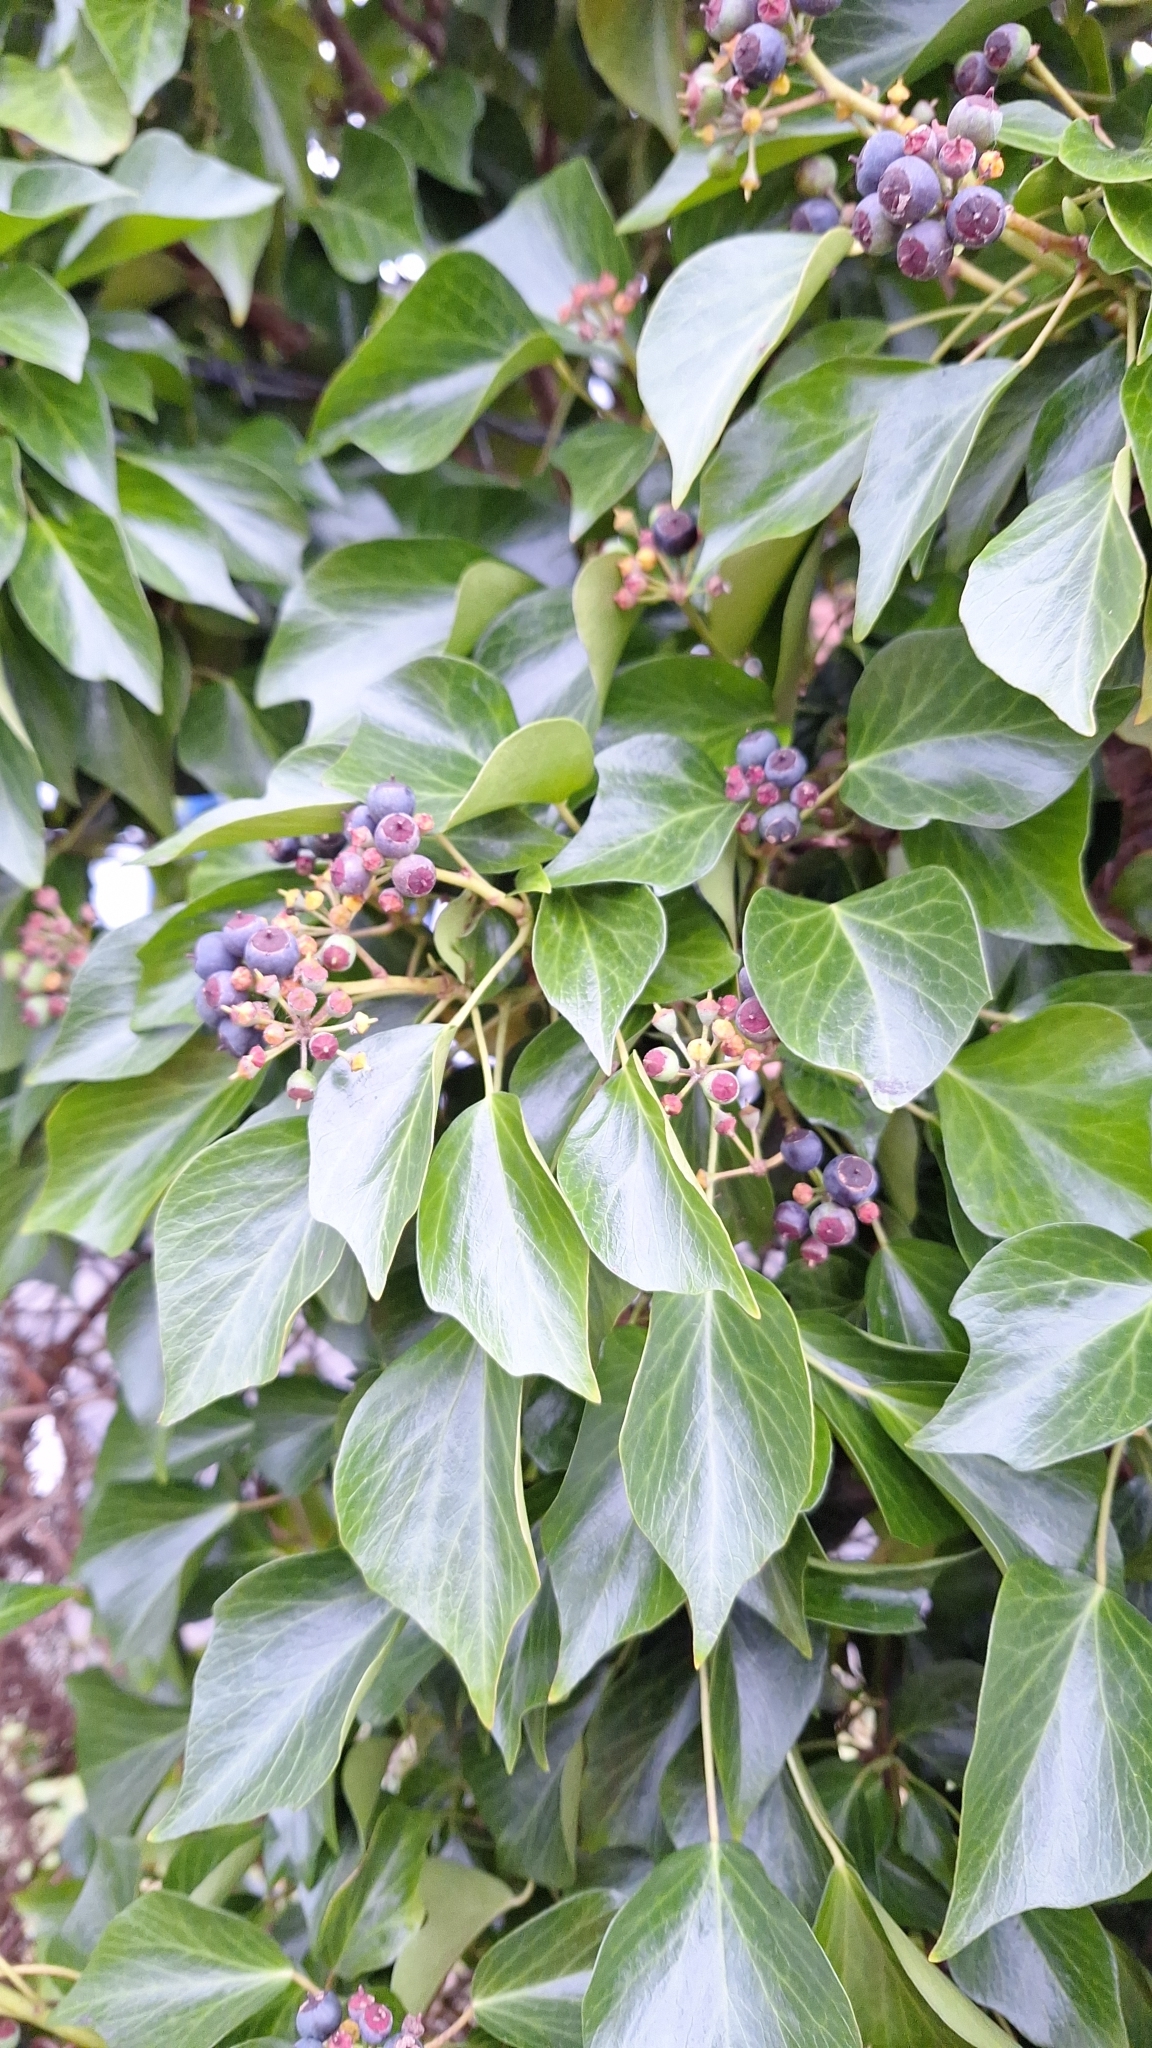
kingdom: Plantae
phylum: Tracheophyta
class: Magnoliopsida
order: Apiales
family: Araliaceae
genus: Hedera
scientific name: Hedera hibernica
